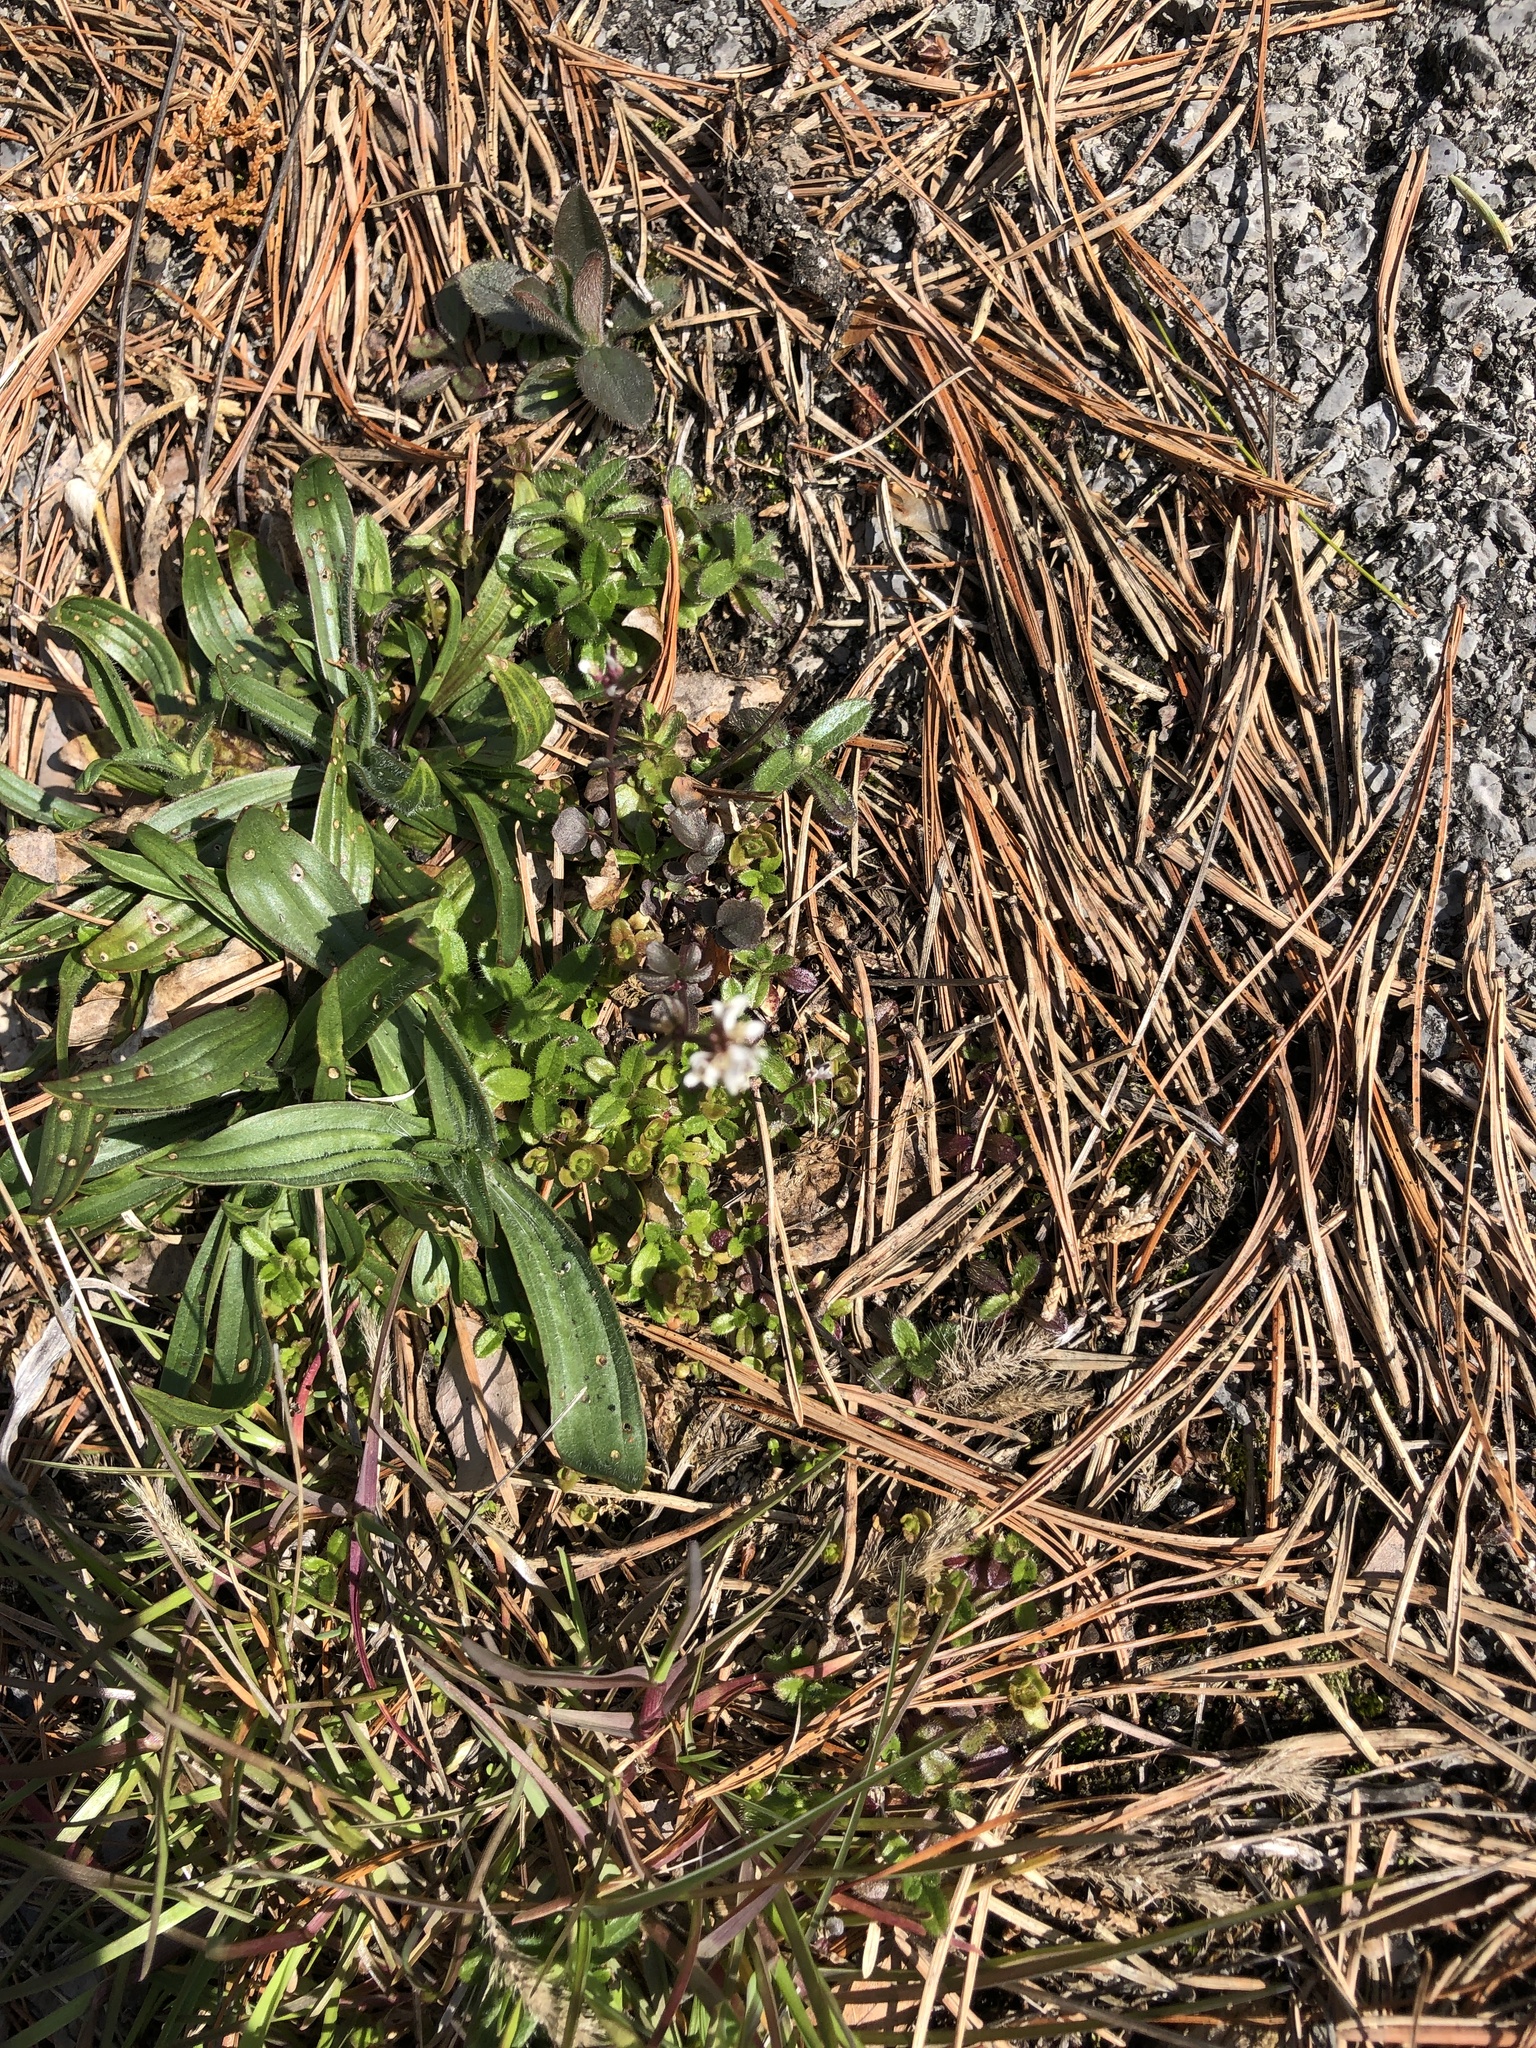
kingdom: Plantae
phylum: Tracheophyta
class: Magnoliopsida
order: Brassicales
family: Brassicaceae
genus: Cardamine
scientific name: Cardamine hirsuta
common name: Hairy bittercress
